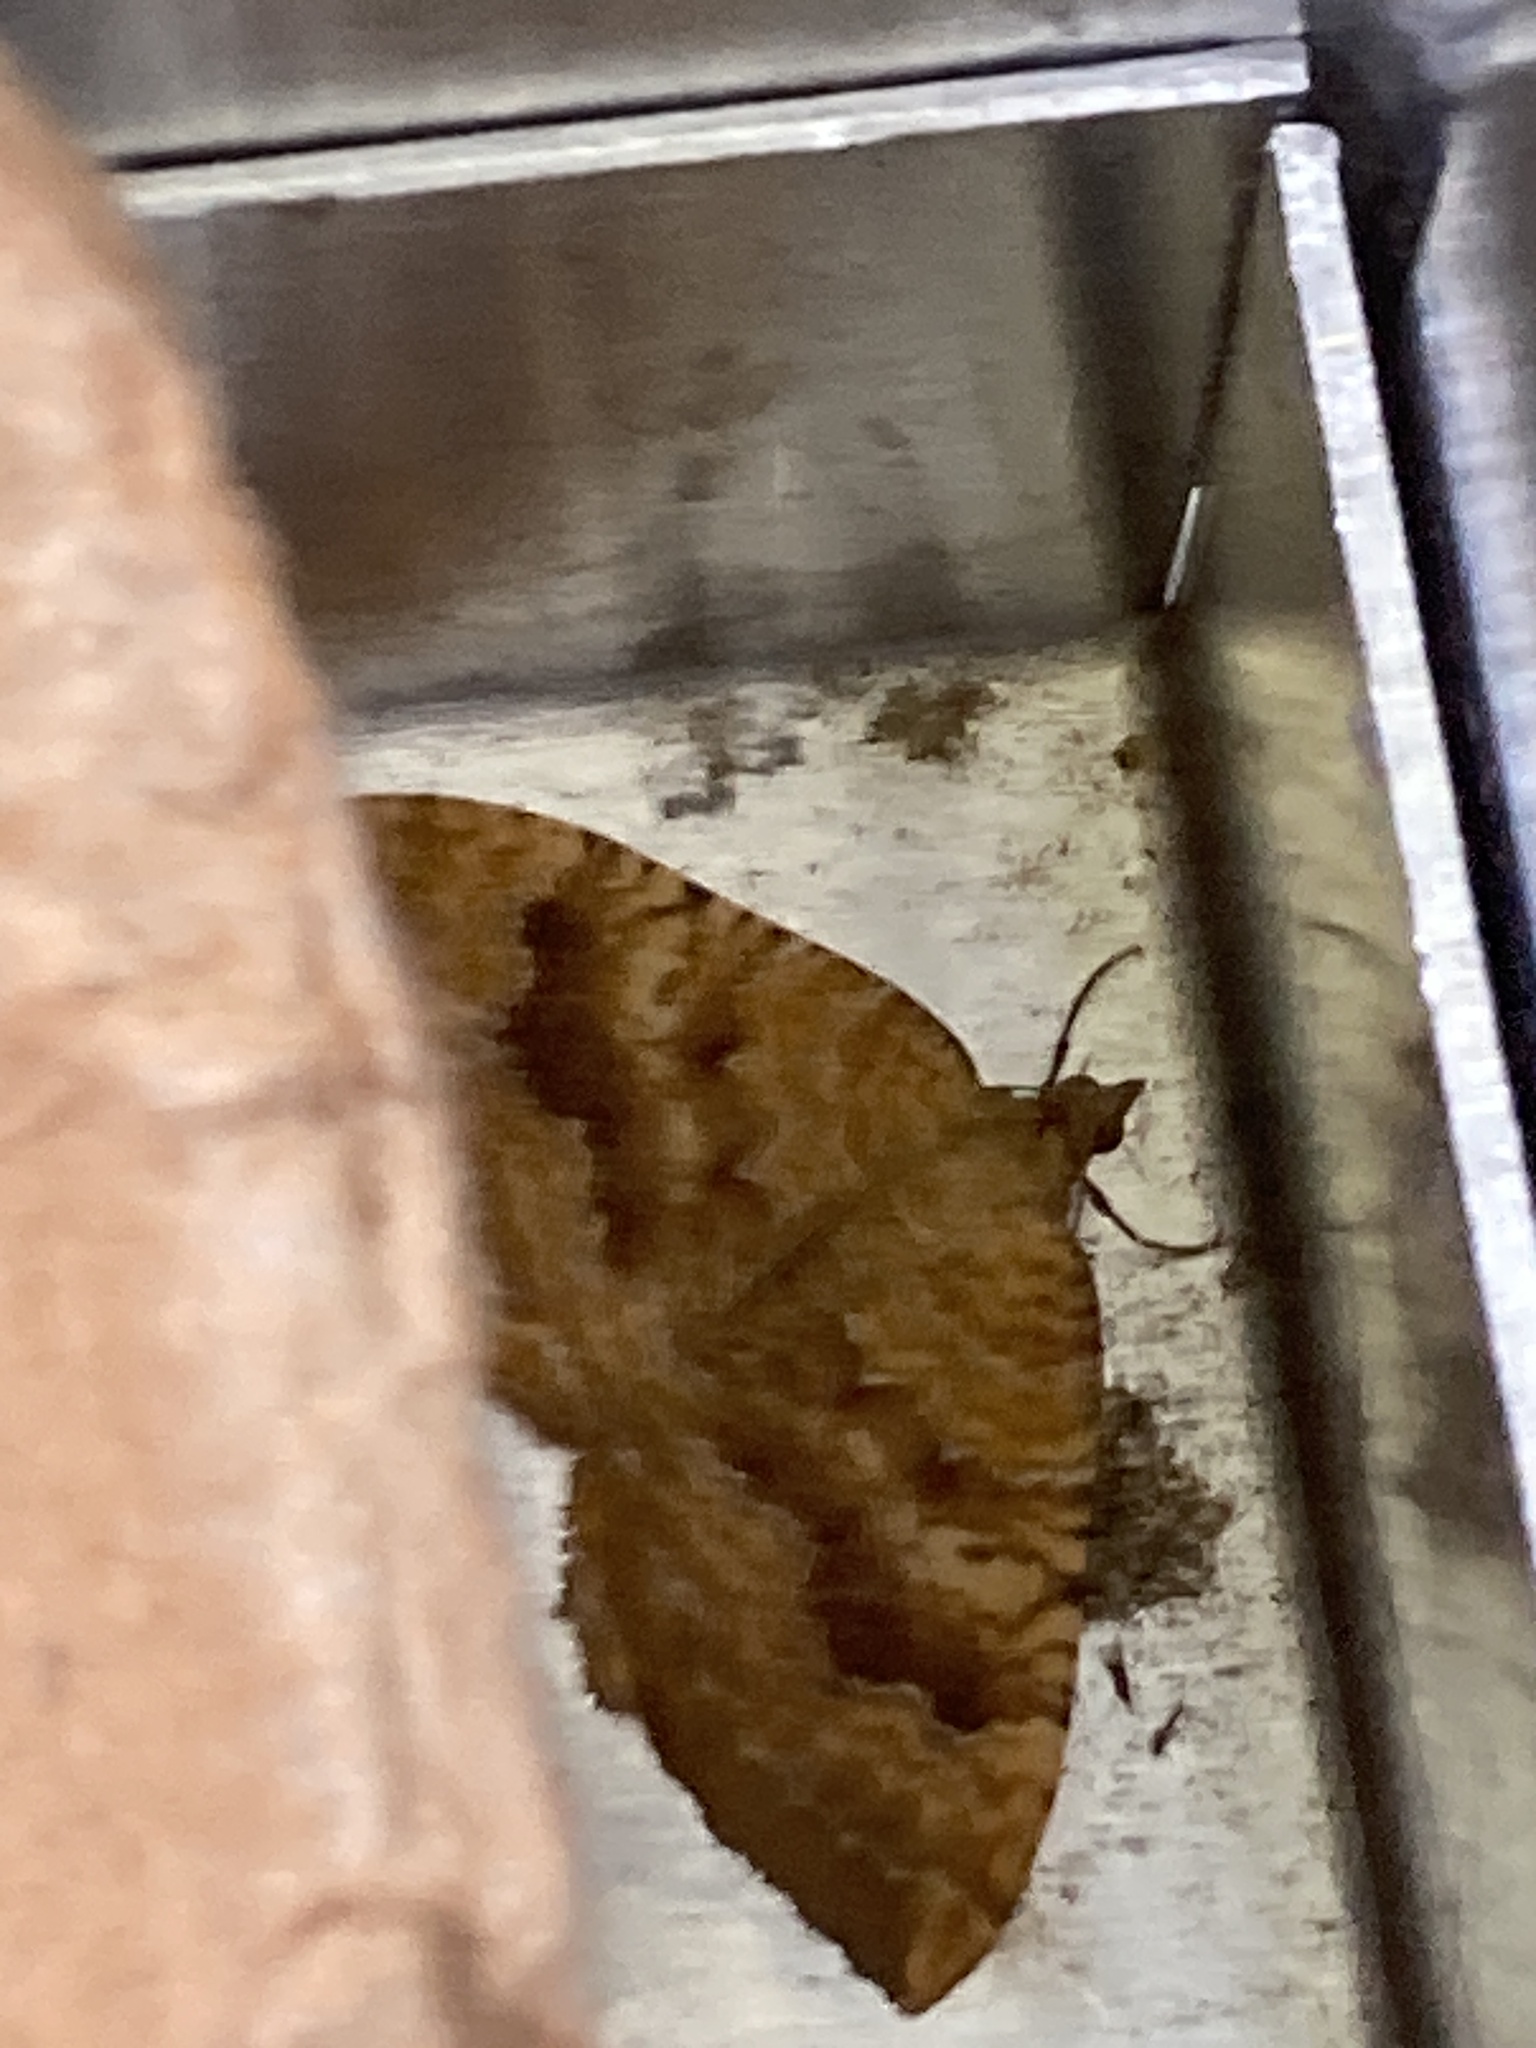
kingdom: Animalia
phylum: Arthropoda
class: Insecta
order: Lepidoptera
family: Geometridae
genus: Camptogramma
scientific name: Camptogramma bilineata
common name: Yellow shell
